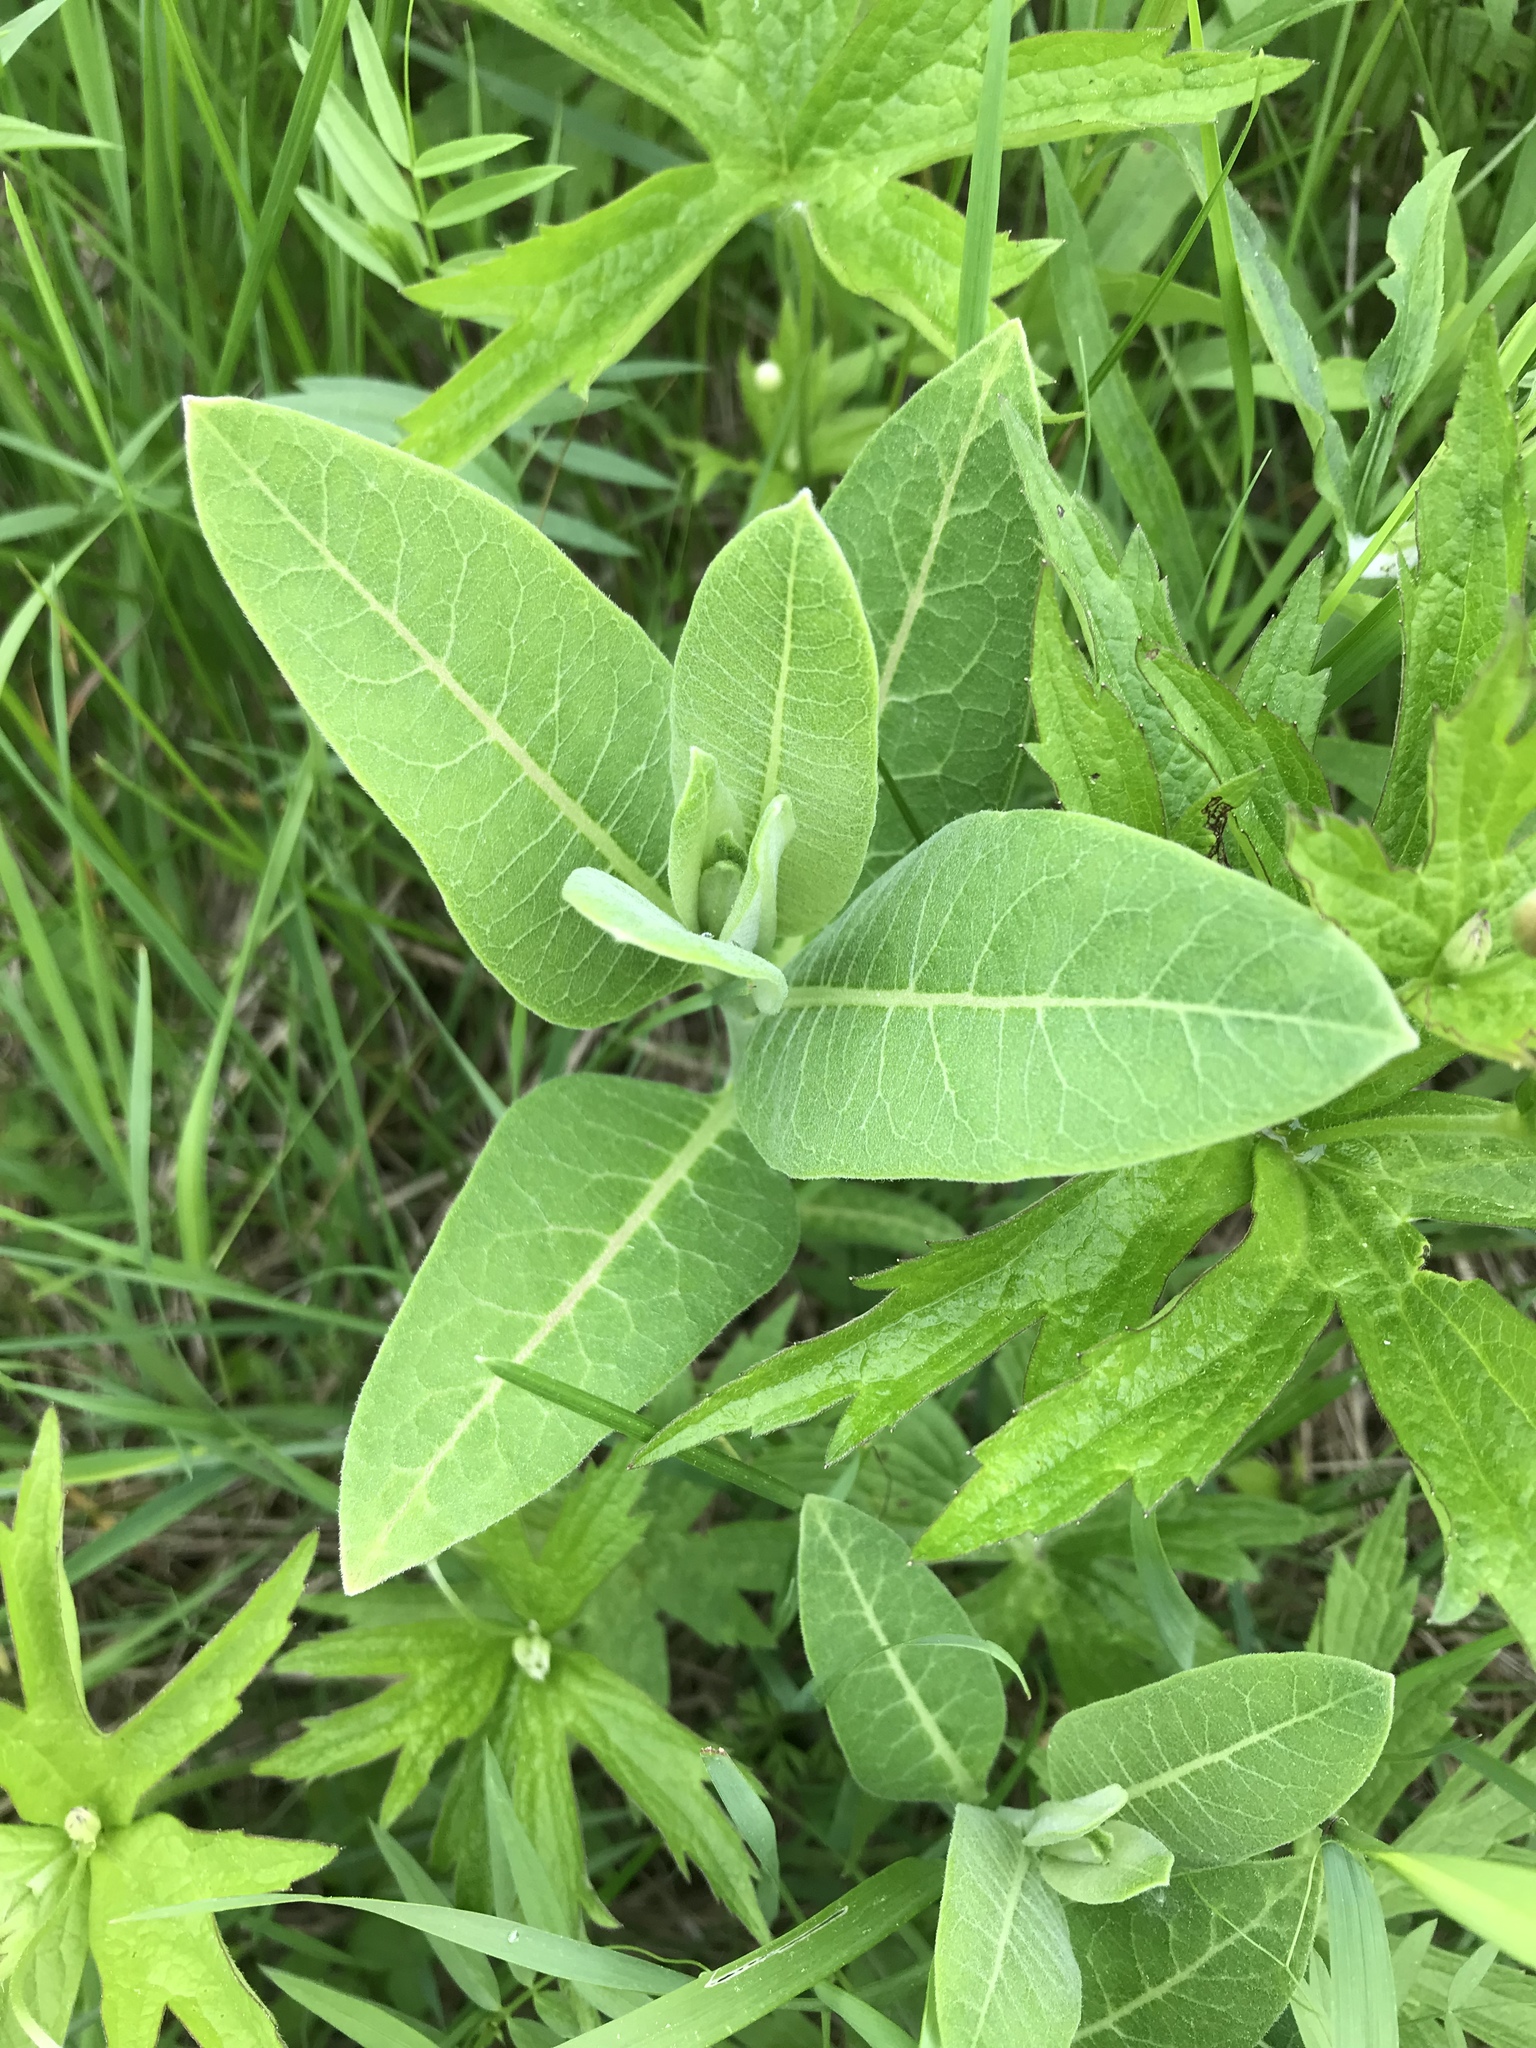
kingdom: Plantae
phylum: Tracheophyta
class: Magnoliopsida
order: Gentianales
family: Apocynaceae
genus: Asclepias
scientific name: Asclepias syriaca
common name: Common milkweed
